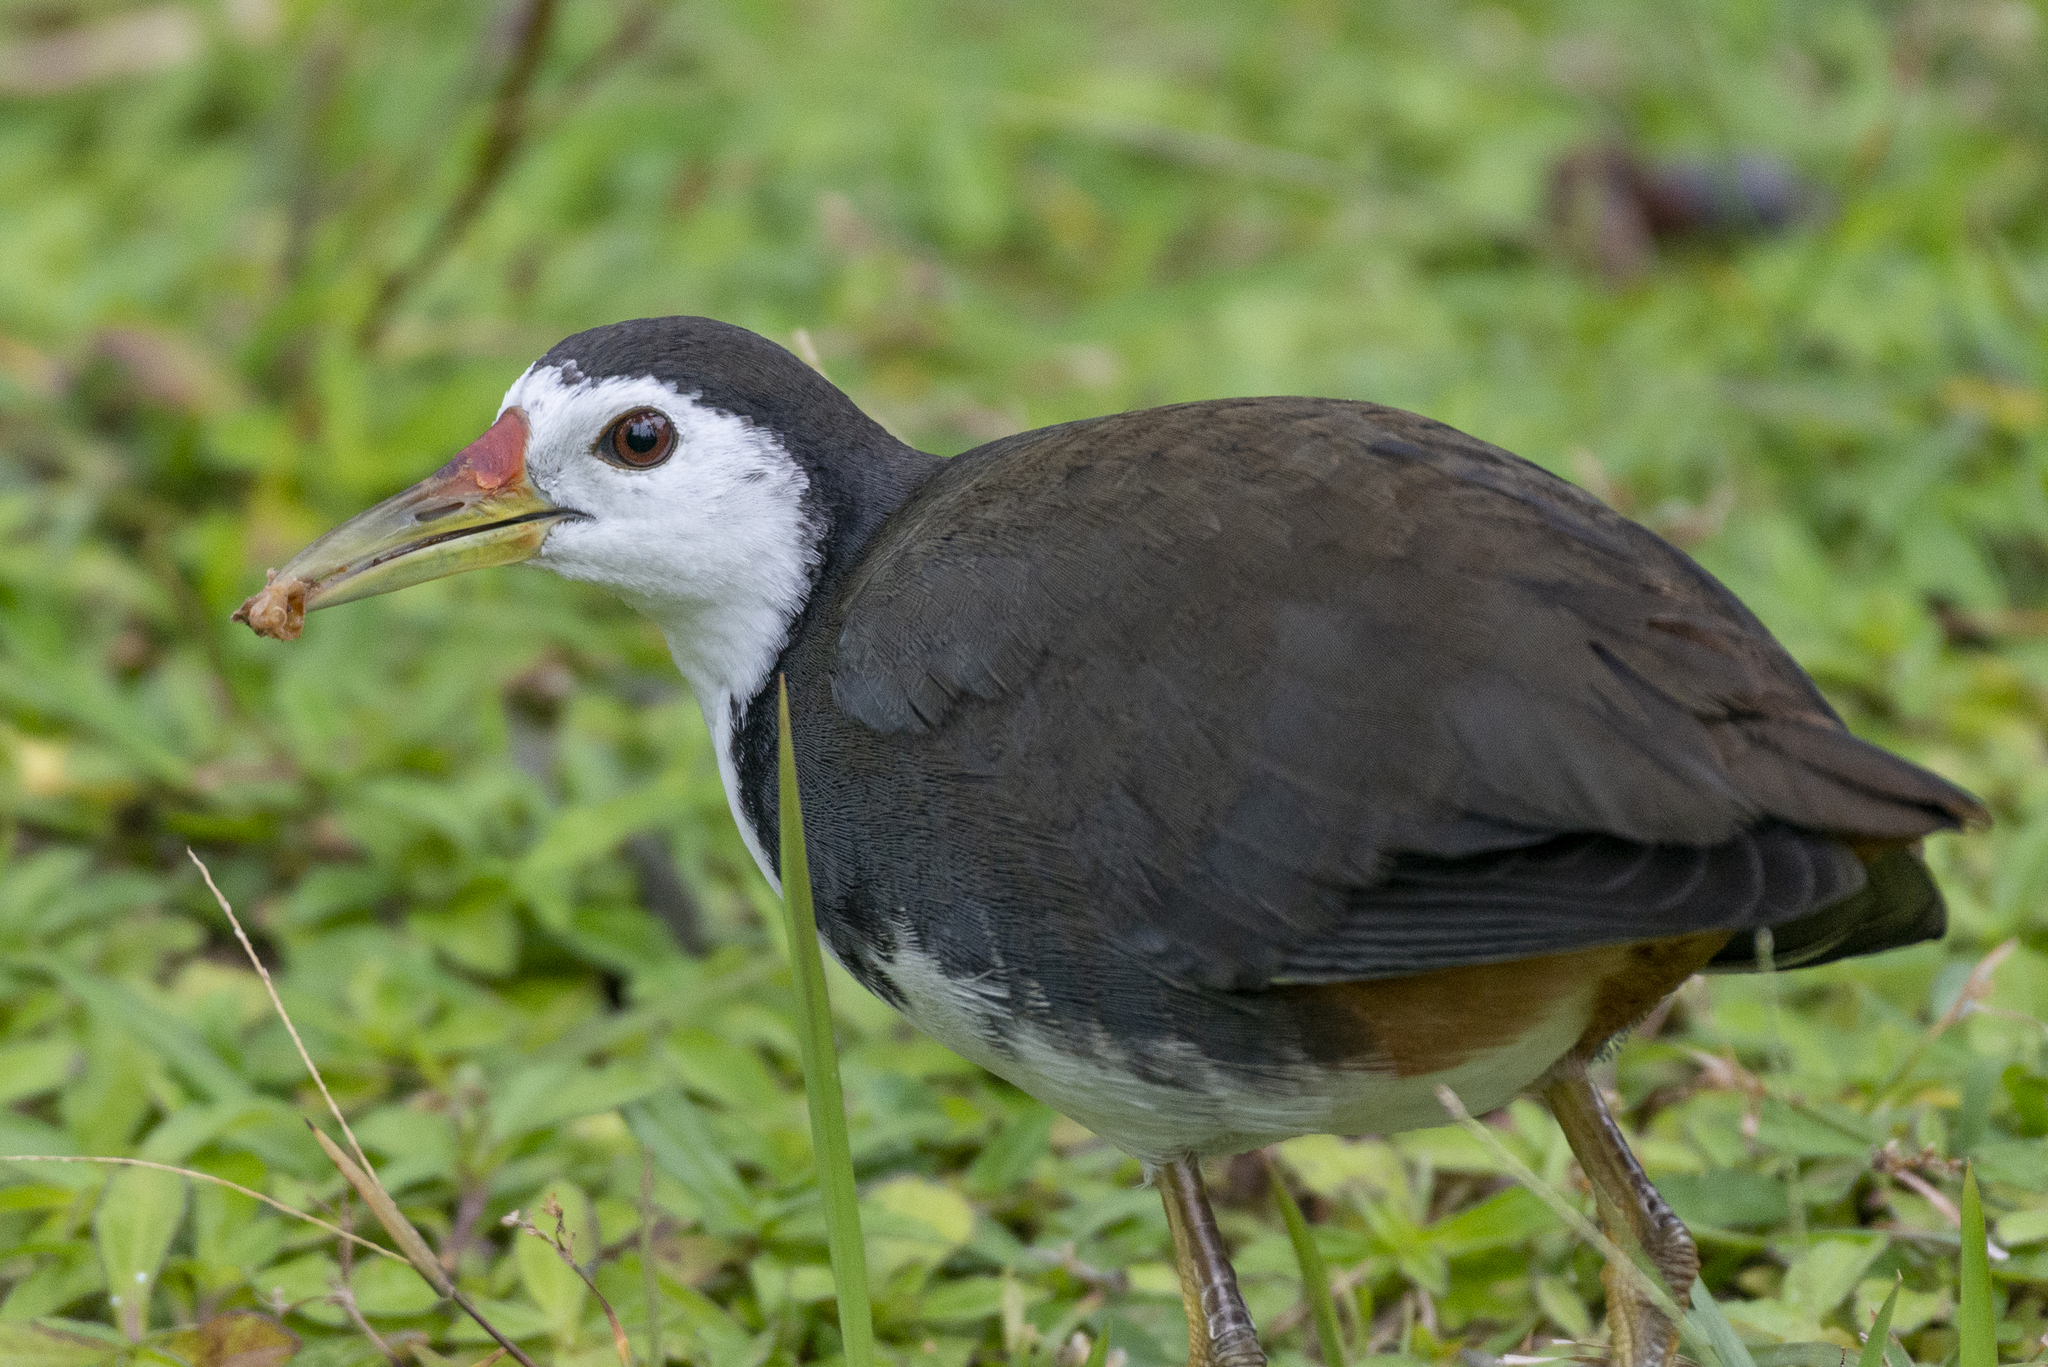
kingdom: Animalia
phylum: Chordata
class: Aves
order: Gruiformes
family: Rallidae
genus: Amaurornis
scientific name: Amaurornis phoenicurus
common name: White-breasted waterhen
